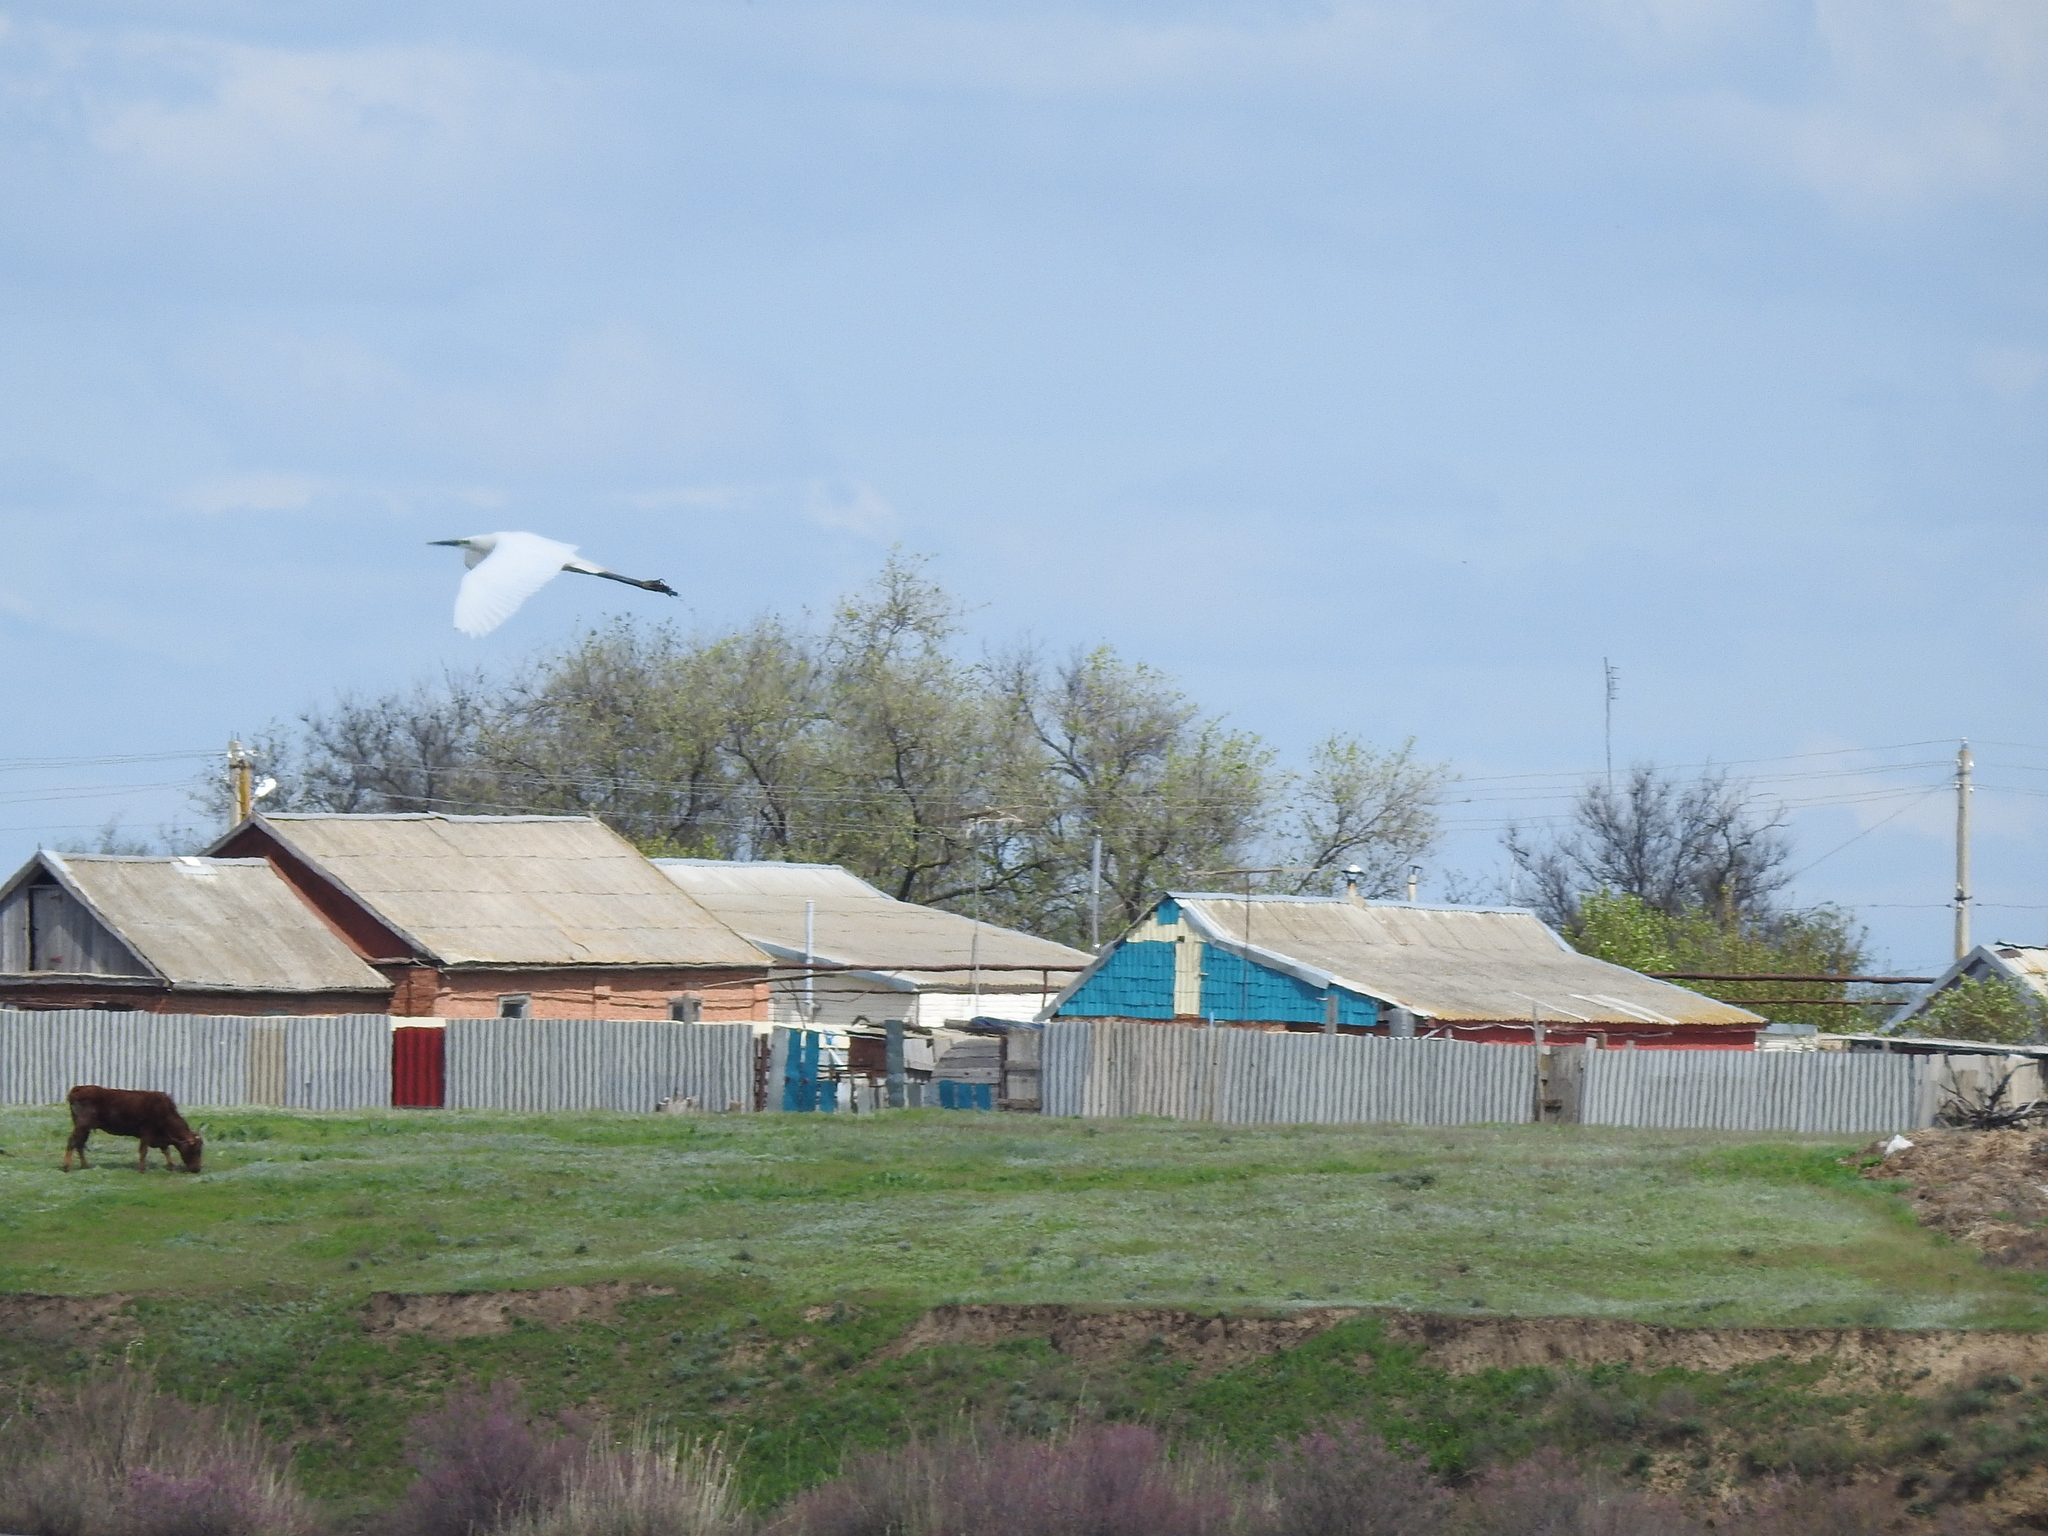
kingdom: Animalia
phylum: Chordata
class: Aves
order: Pelecaniformes
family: Ardeidae
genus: Ardea
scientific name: Ardea alba
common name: Great egret
